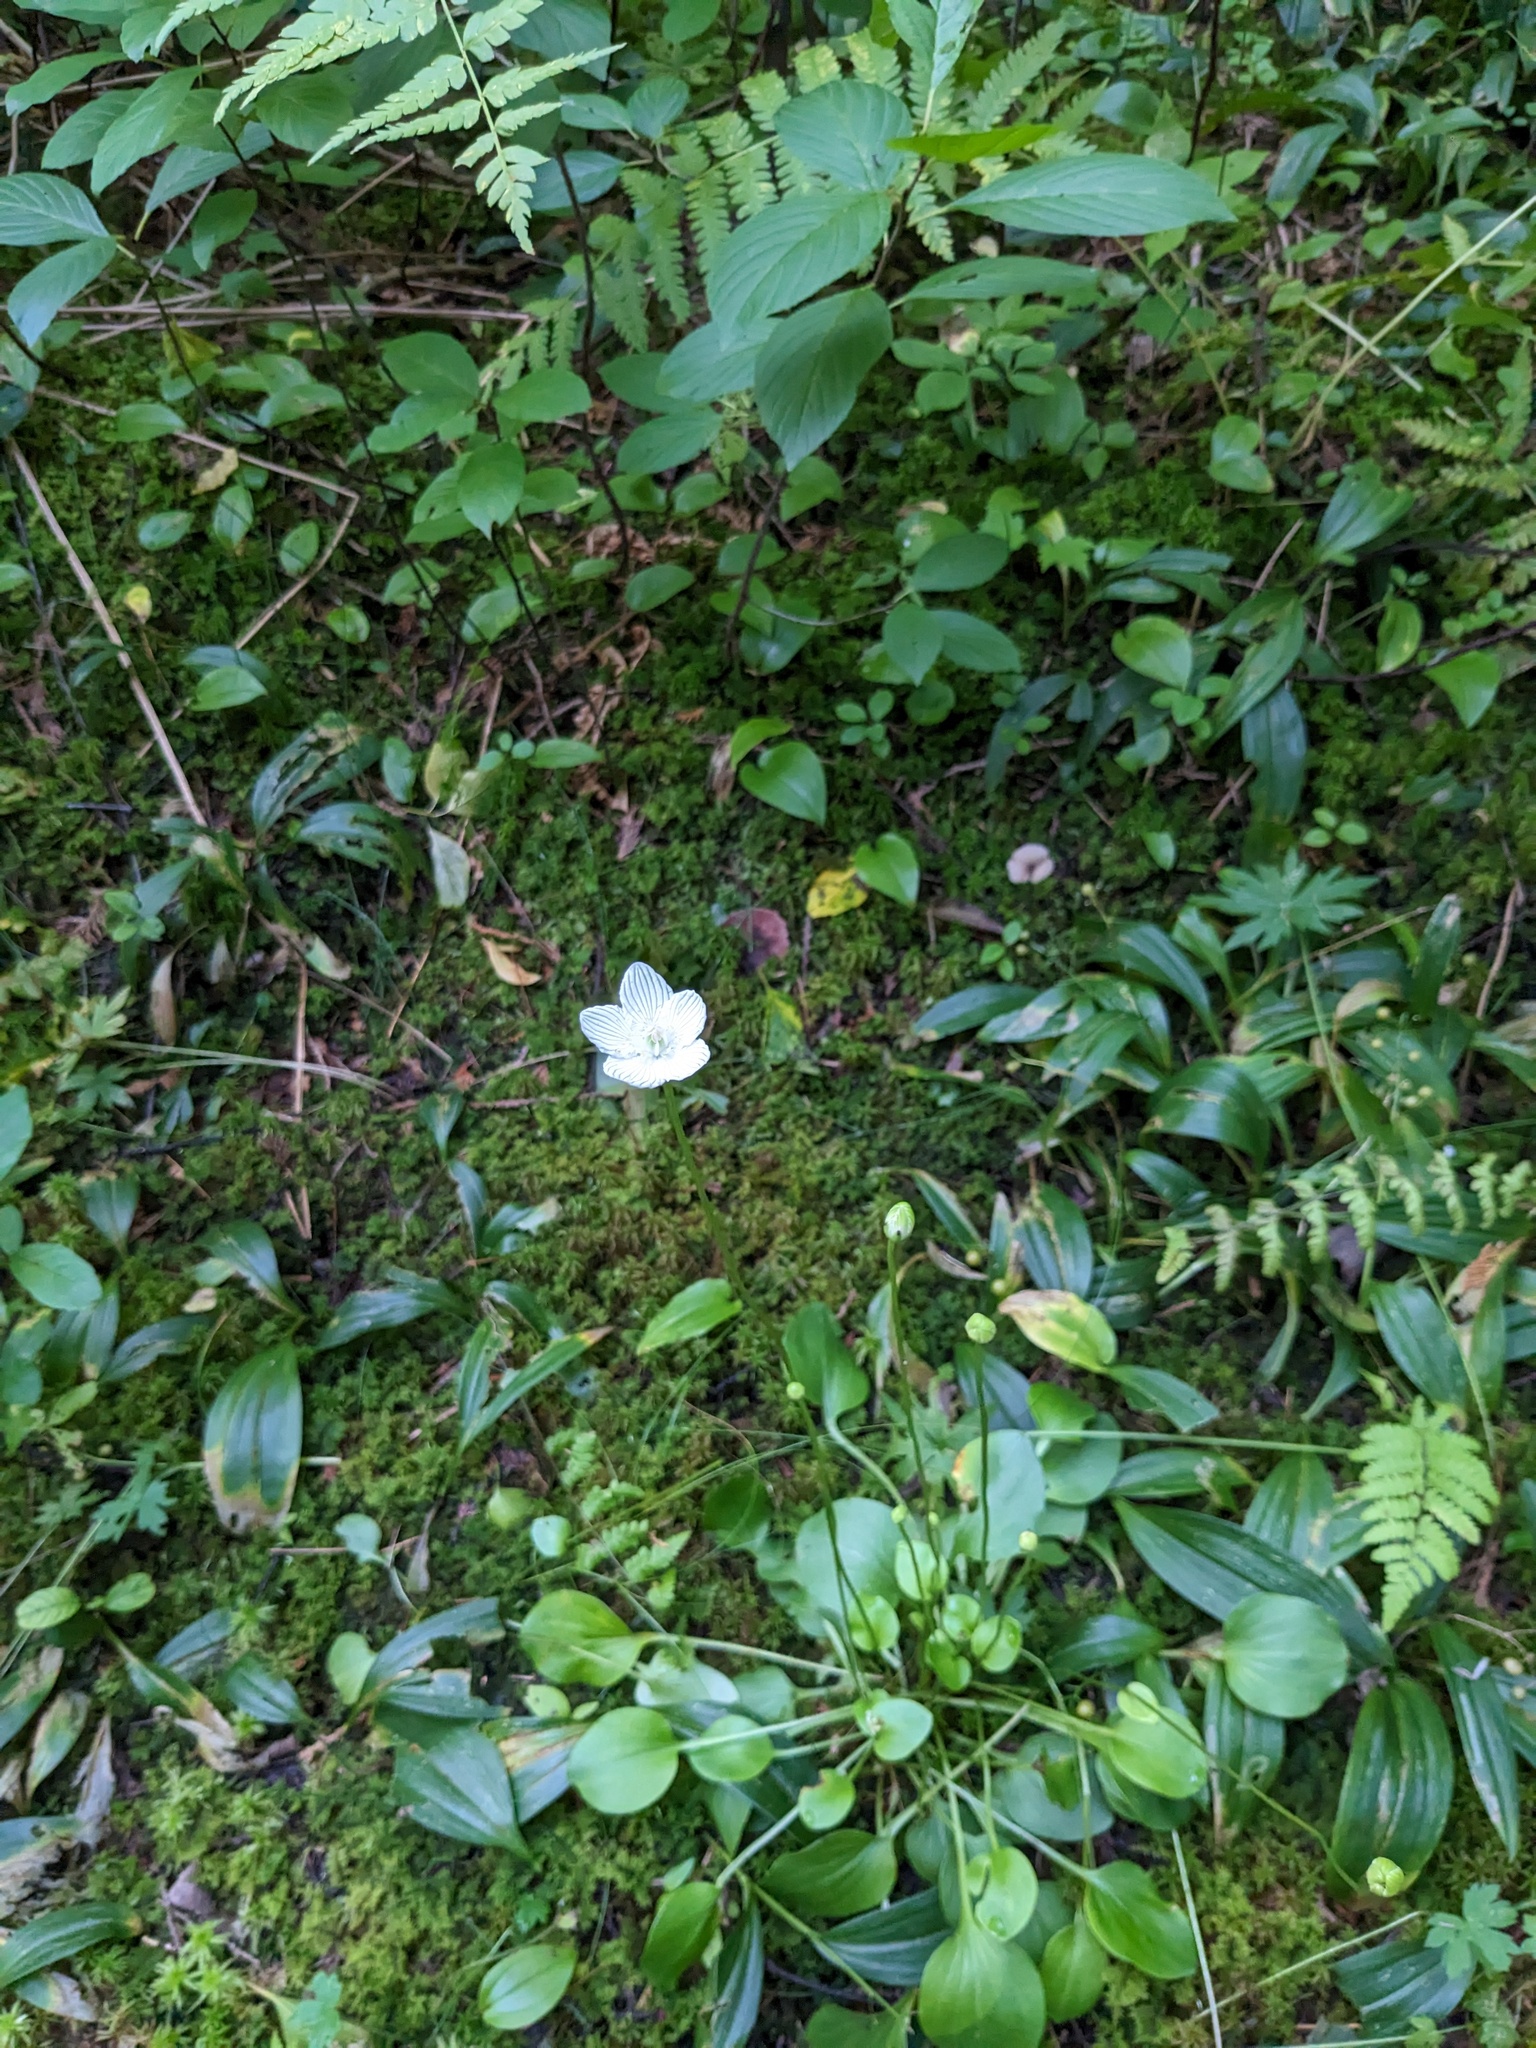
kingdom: Plantae
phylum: Tracheophyta
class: Magnoliopsida
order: Celastrales
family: Parnassiaceae
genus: Parnassia
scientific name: Parnassia glauca
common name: American grass-of-parnassus
